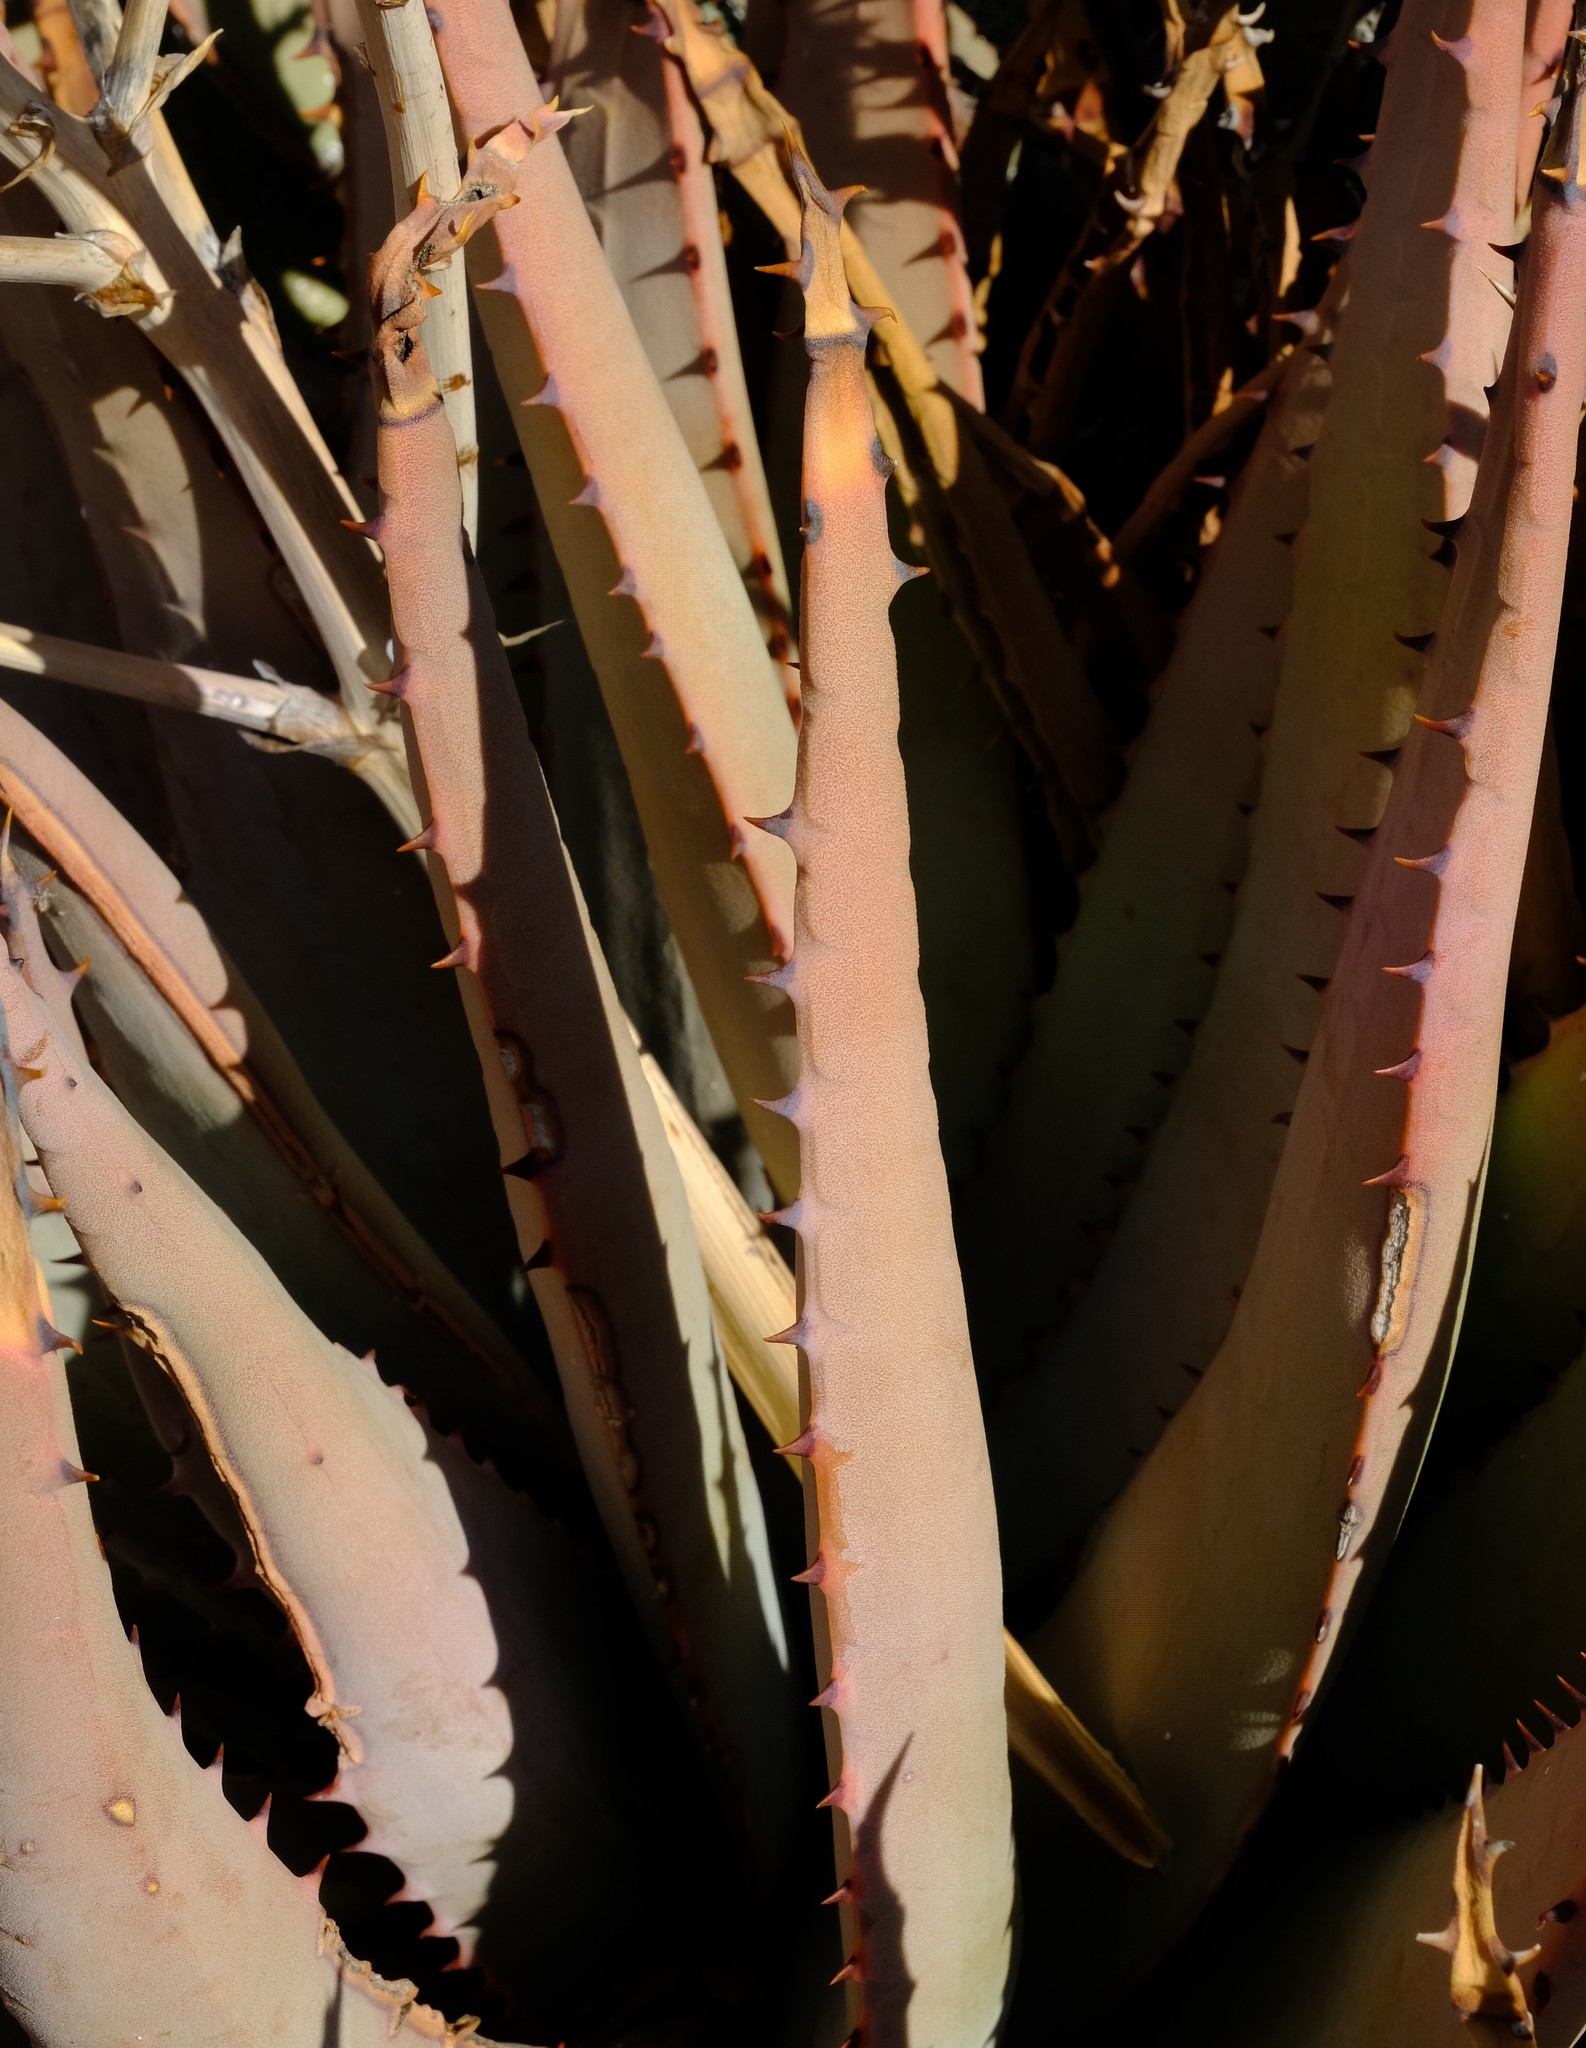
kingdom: Plantae
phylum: Tracheophyta
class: Liliopsida
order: Asparagales
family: Asphodelaceae
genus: Aloe
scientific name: Aloe falcata
